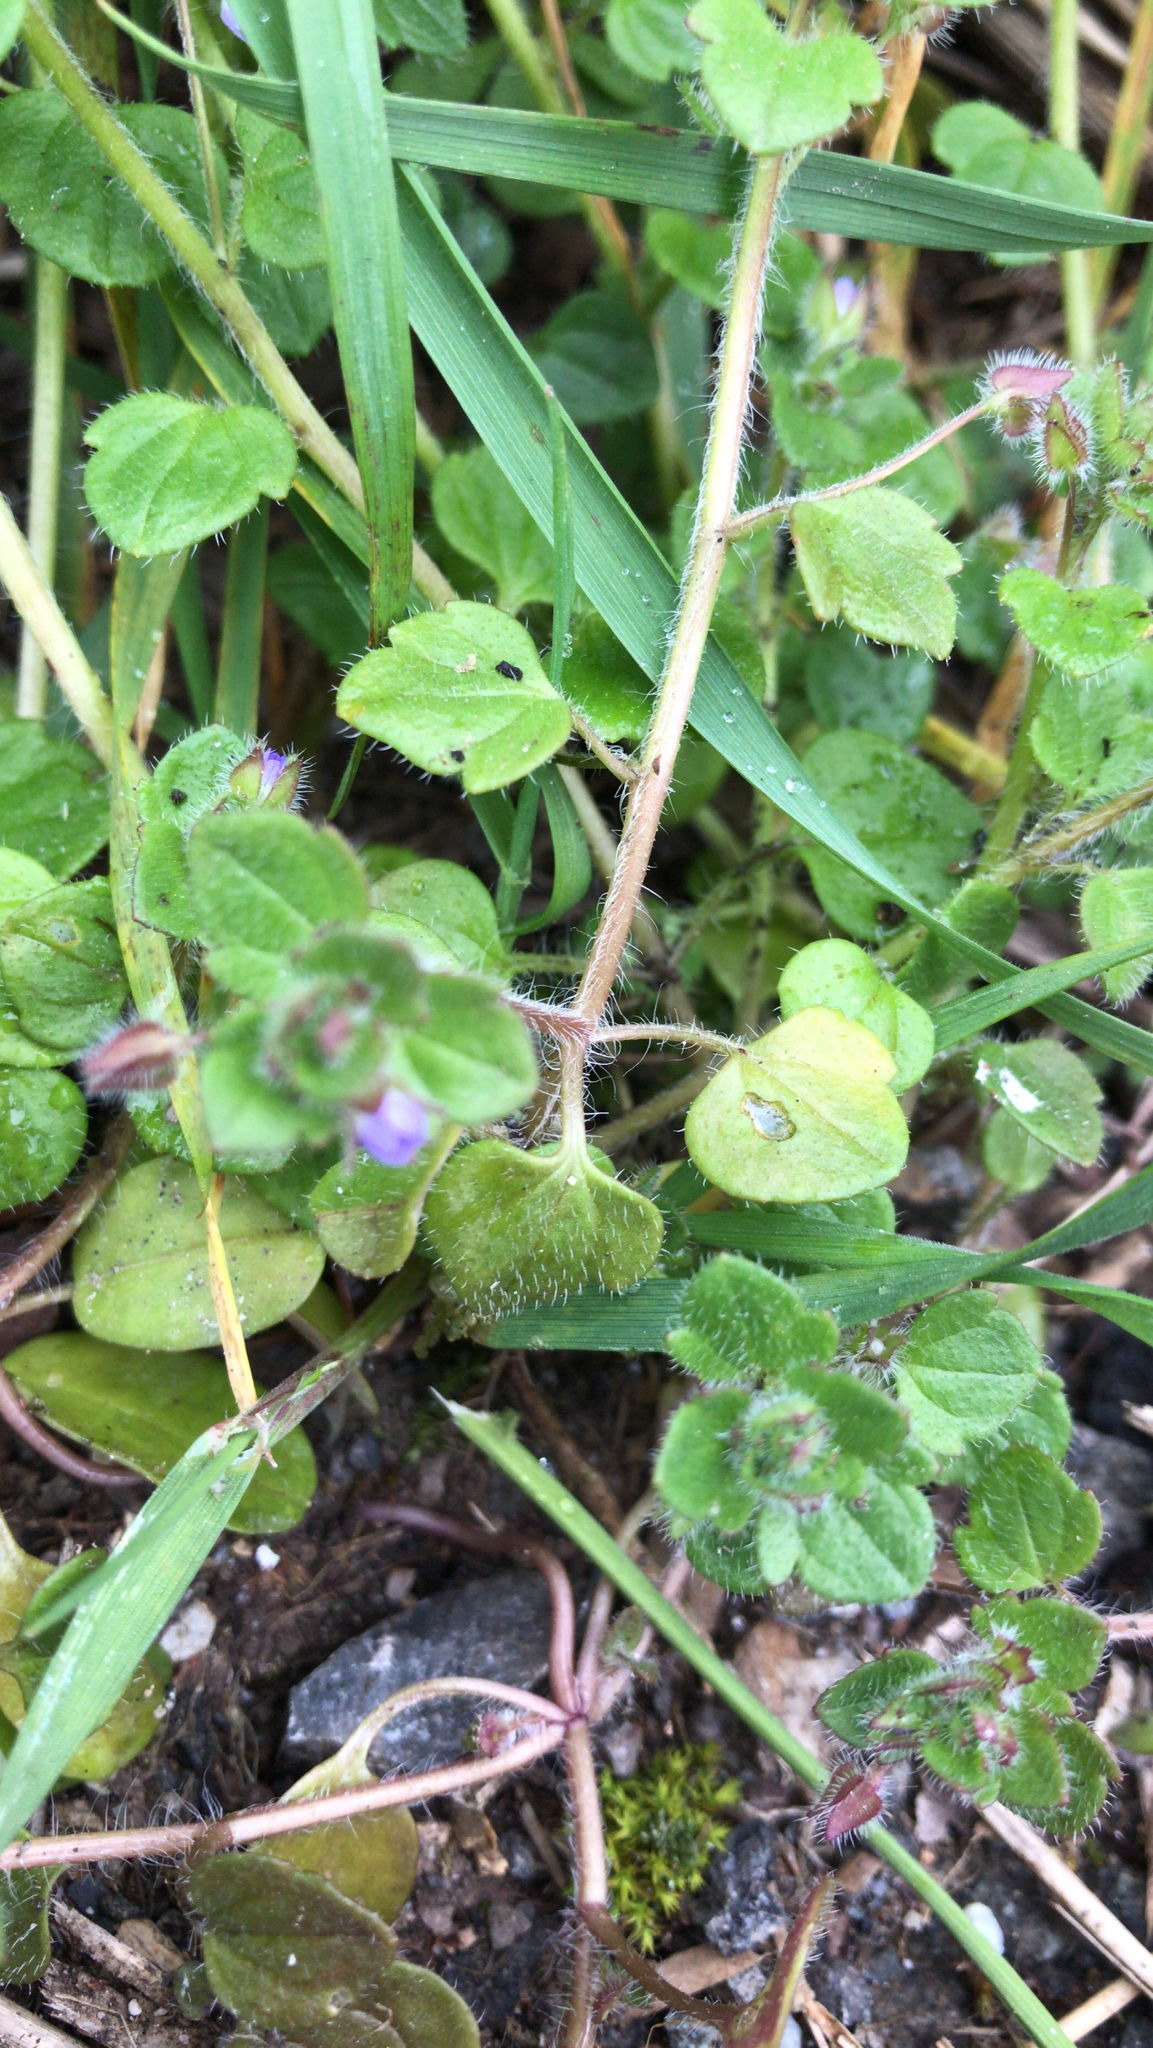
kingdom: Plantae
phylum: Tracheophyta
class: Magnoliopsida
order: Lamiales
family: Plantaginaceae
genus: Veronica
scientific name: Veronica hederifolia
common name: Ivy-leaved speedwell
